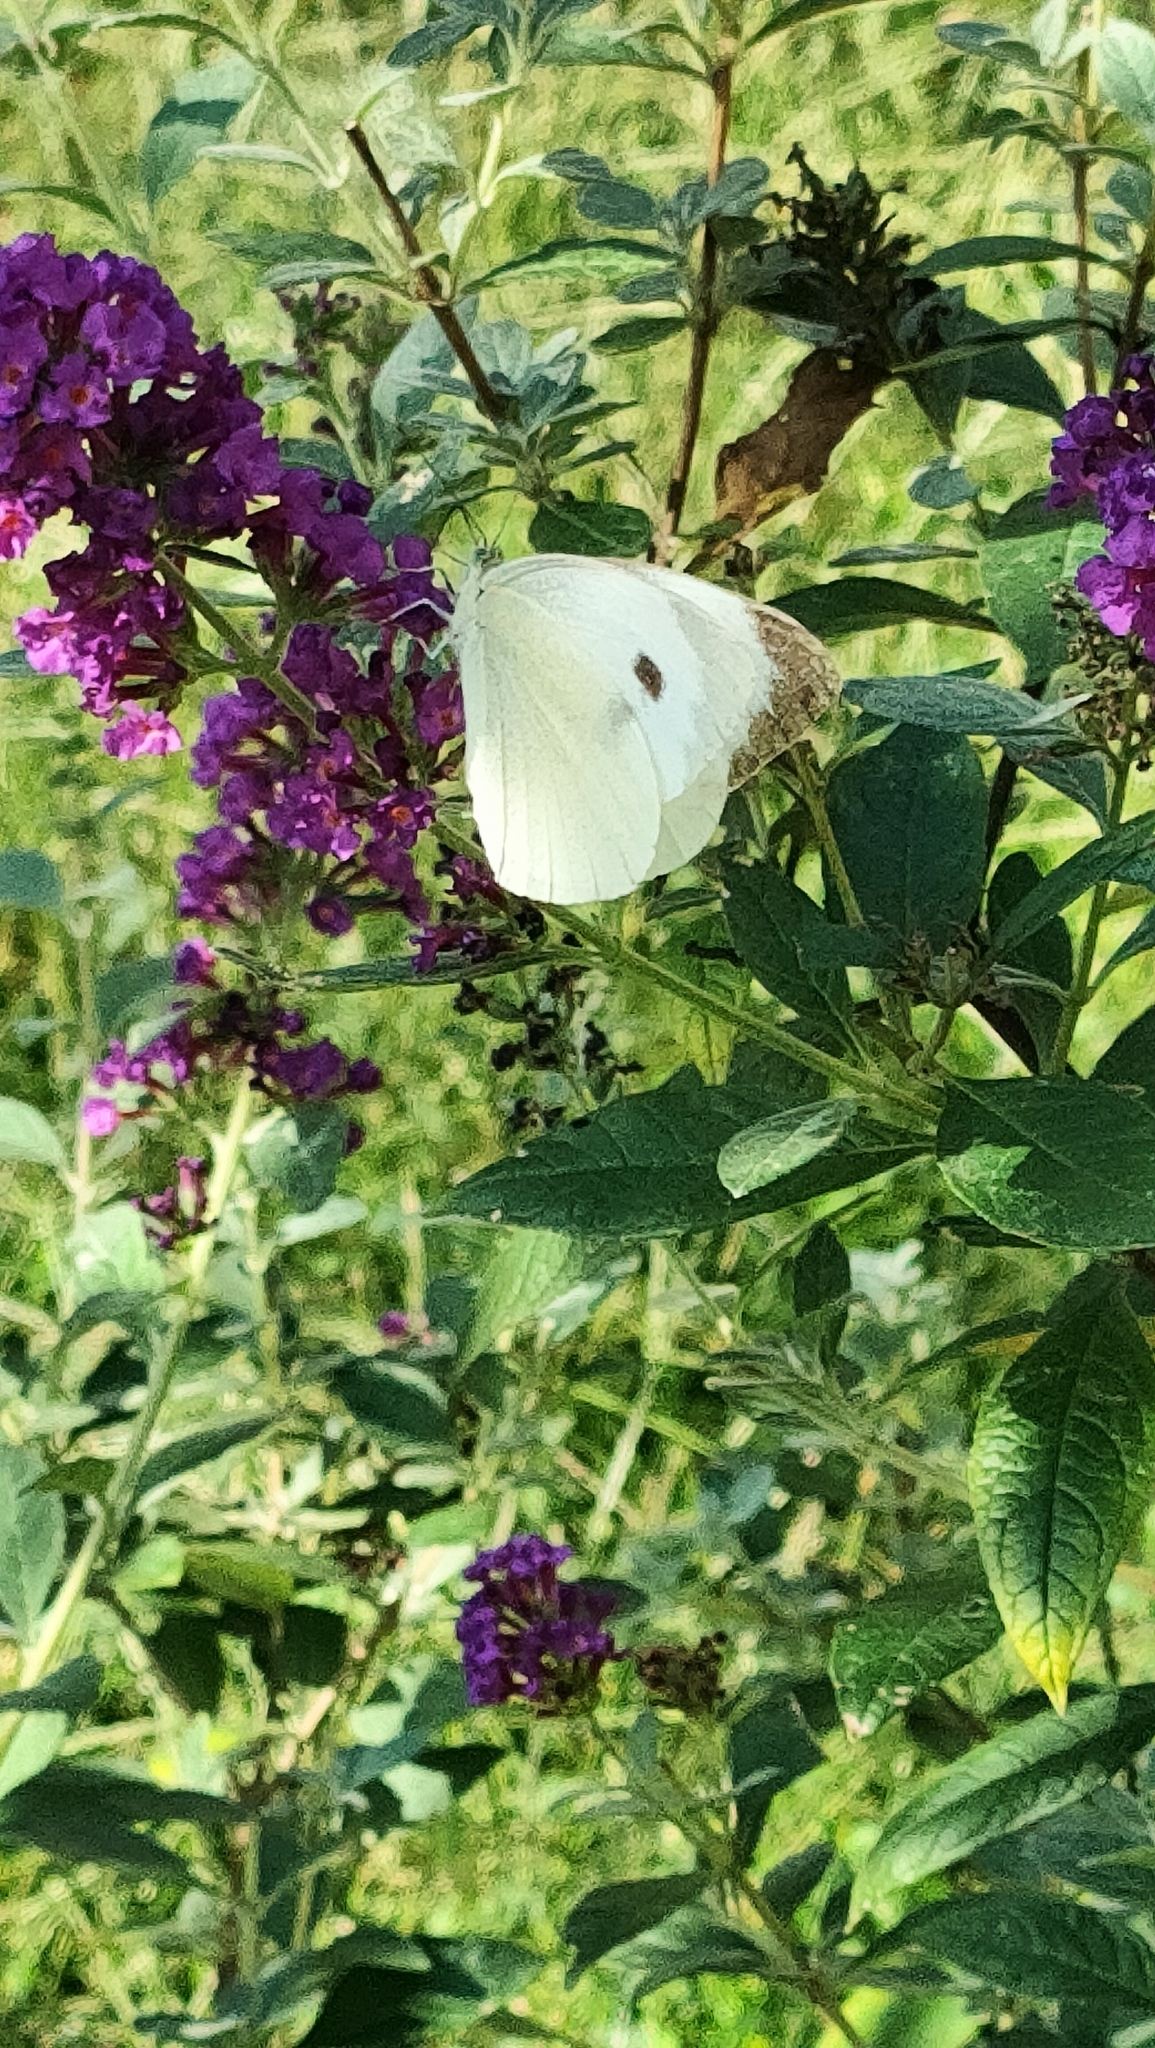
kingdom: Animalia
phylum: Arthropoda
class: Insecta
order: Lepidoptera
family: Pieridae
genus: Pieris
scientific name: Pieris brassicae
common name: Large white
